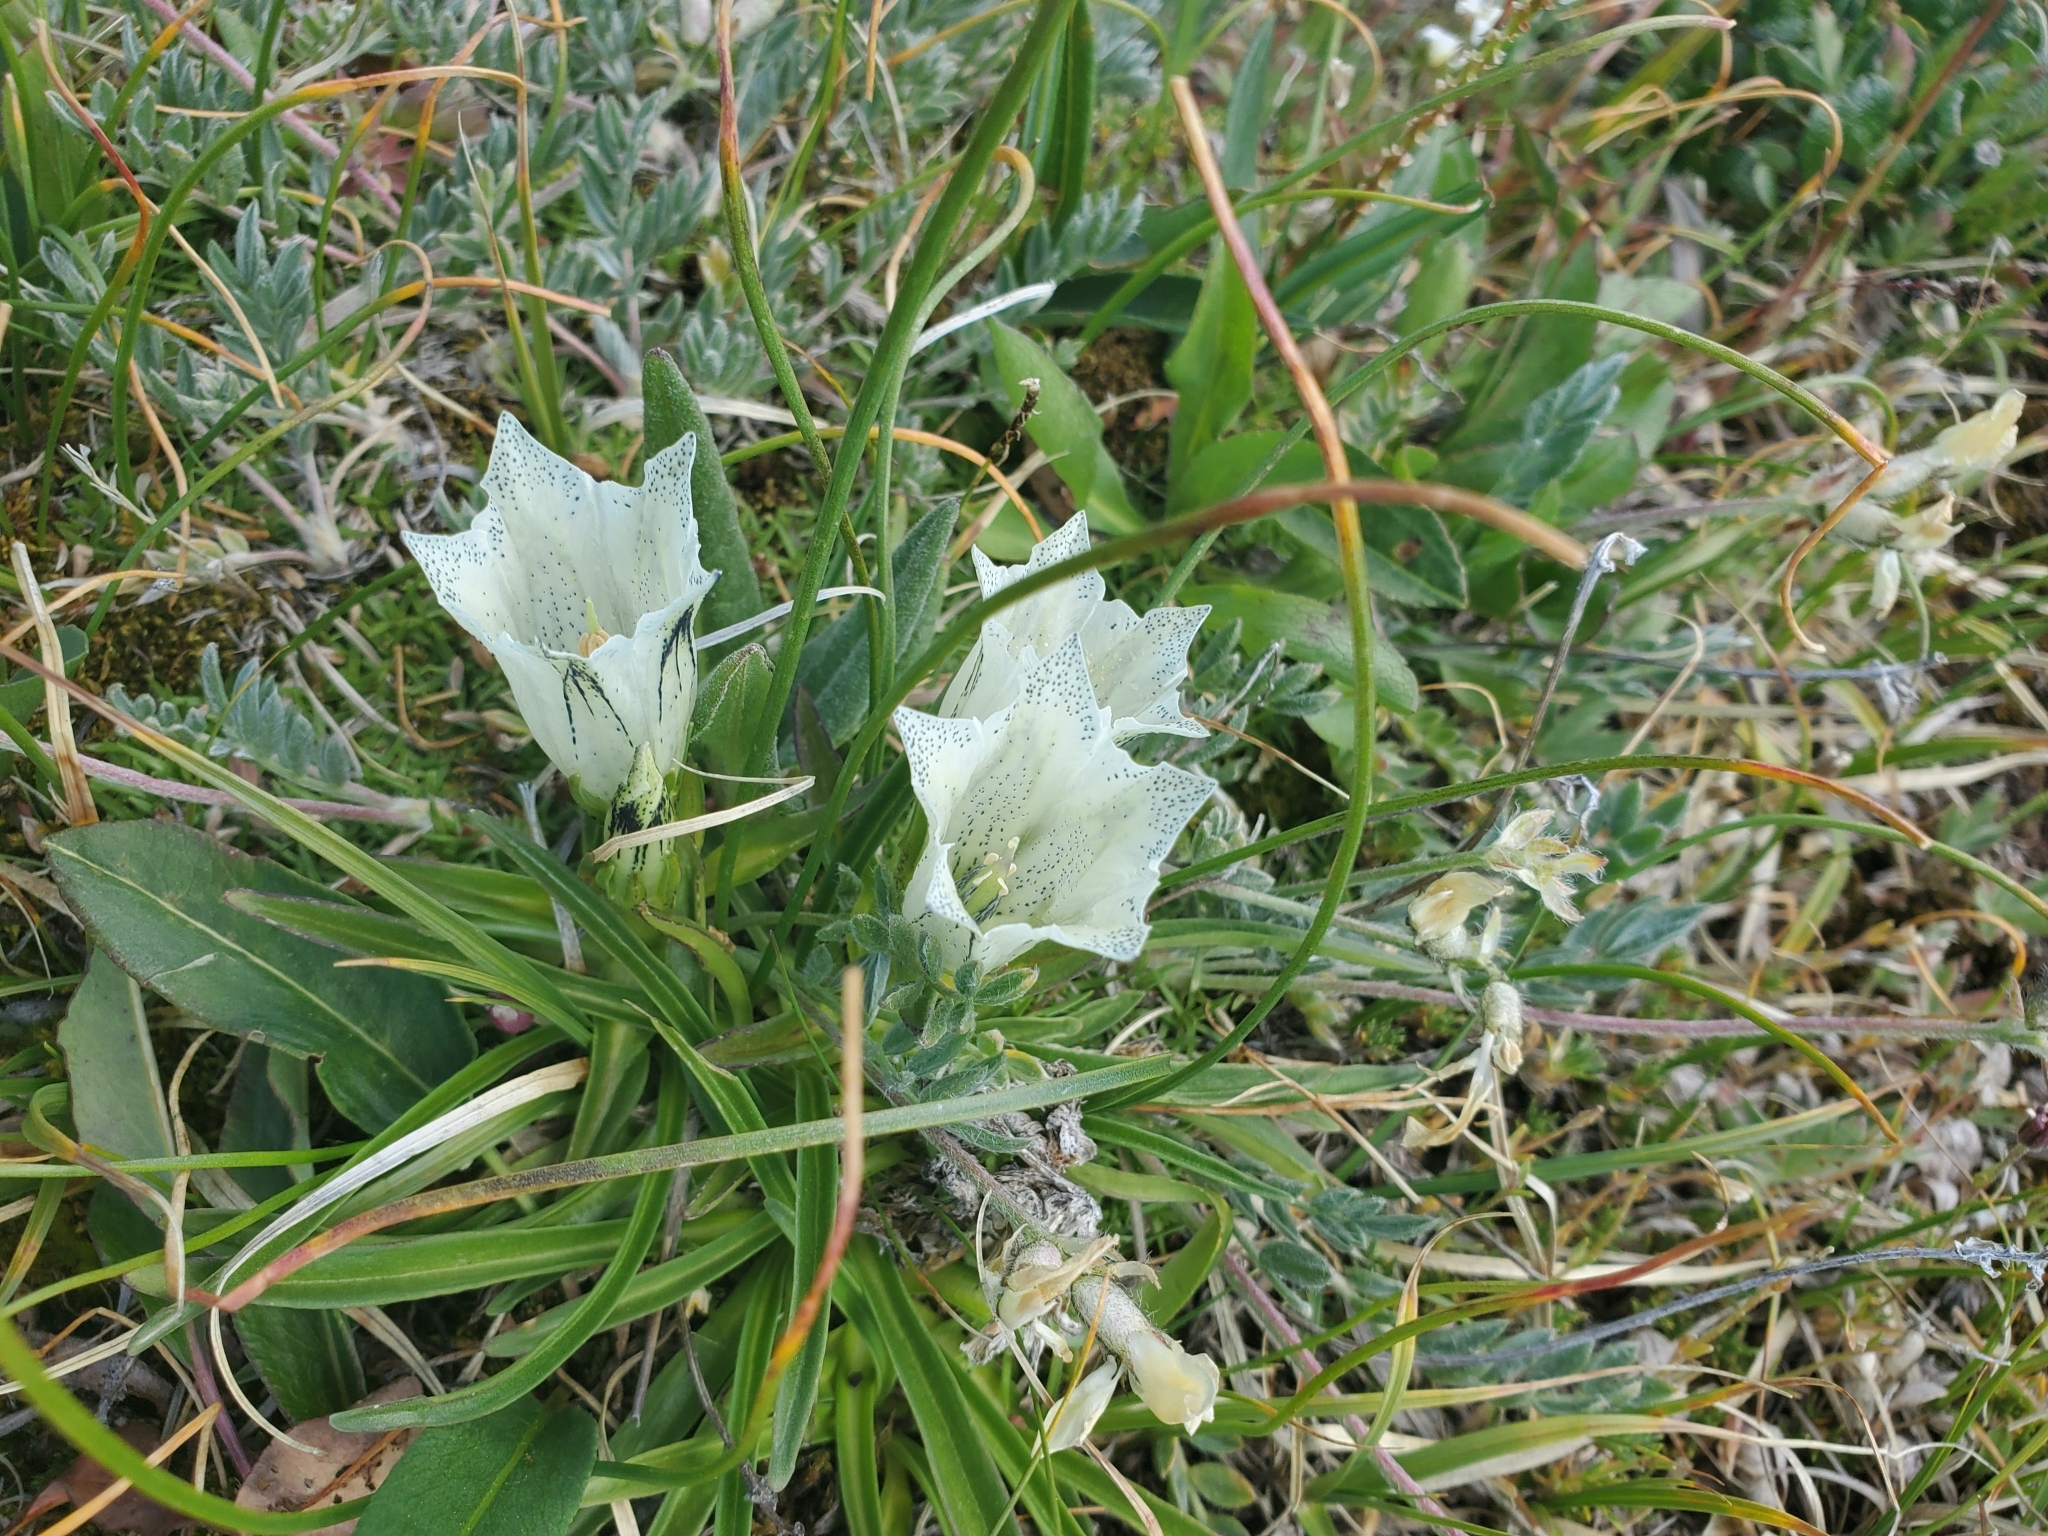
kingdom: Plantae
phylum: Tracheophyta
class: Magnoliopsida
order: Gentianales
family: Gentianaceae
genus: Gentiana
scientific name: Gentiana algida
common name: Arctic gentian
